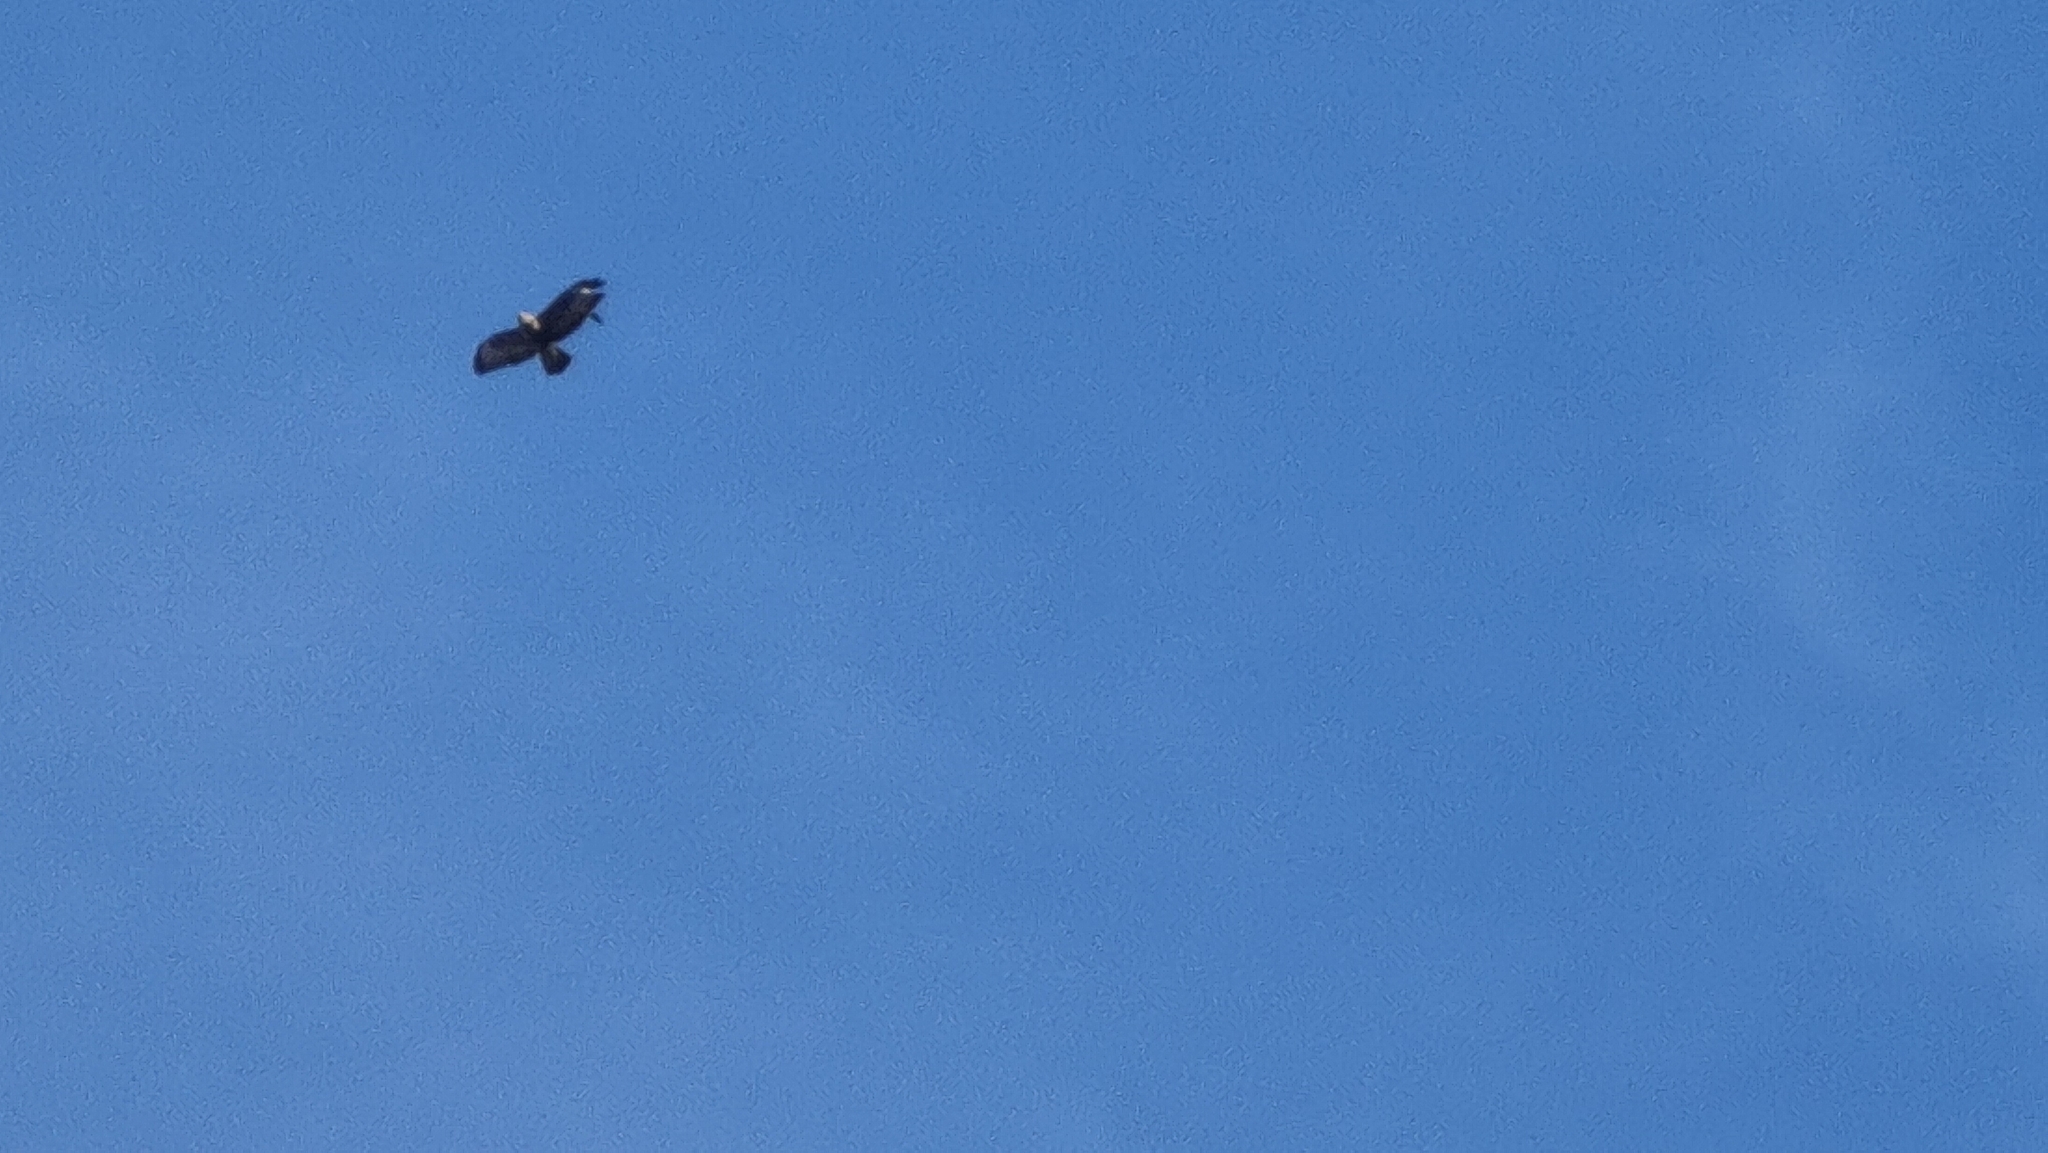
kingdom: Animalia
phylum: Chordata
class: Aves
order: Accipitriformes
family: Accipitridae
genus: Buteo
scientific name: Buteo buteo
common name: Common buzzard
